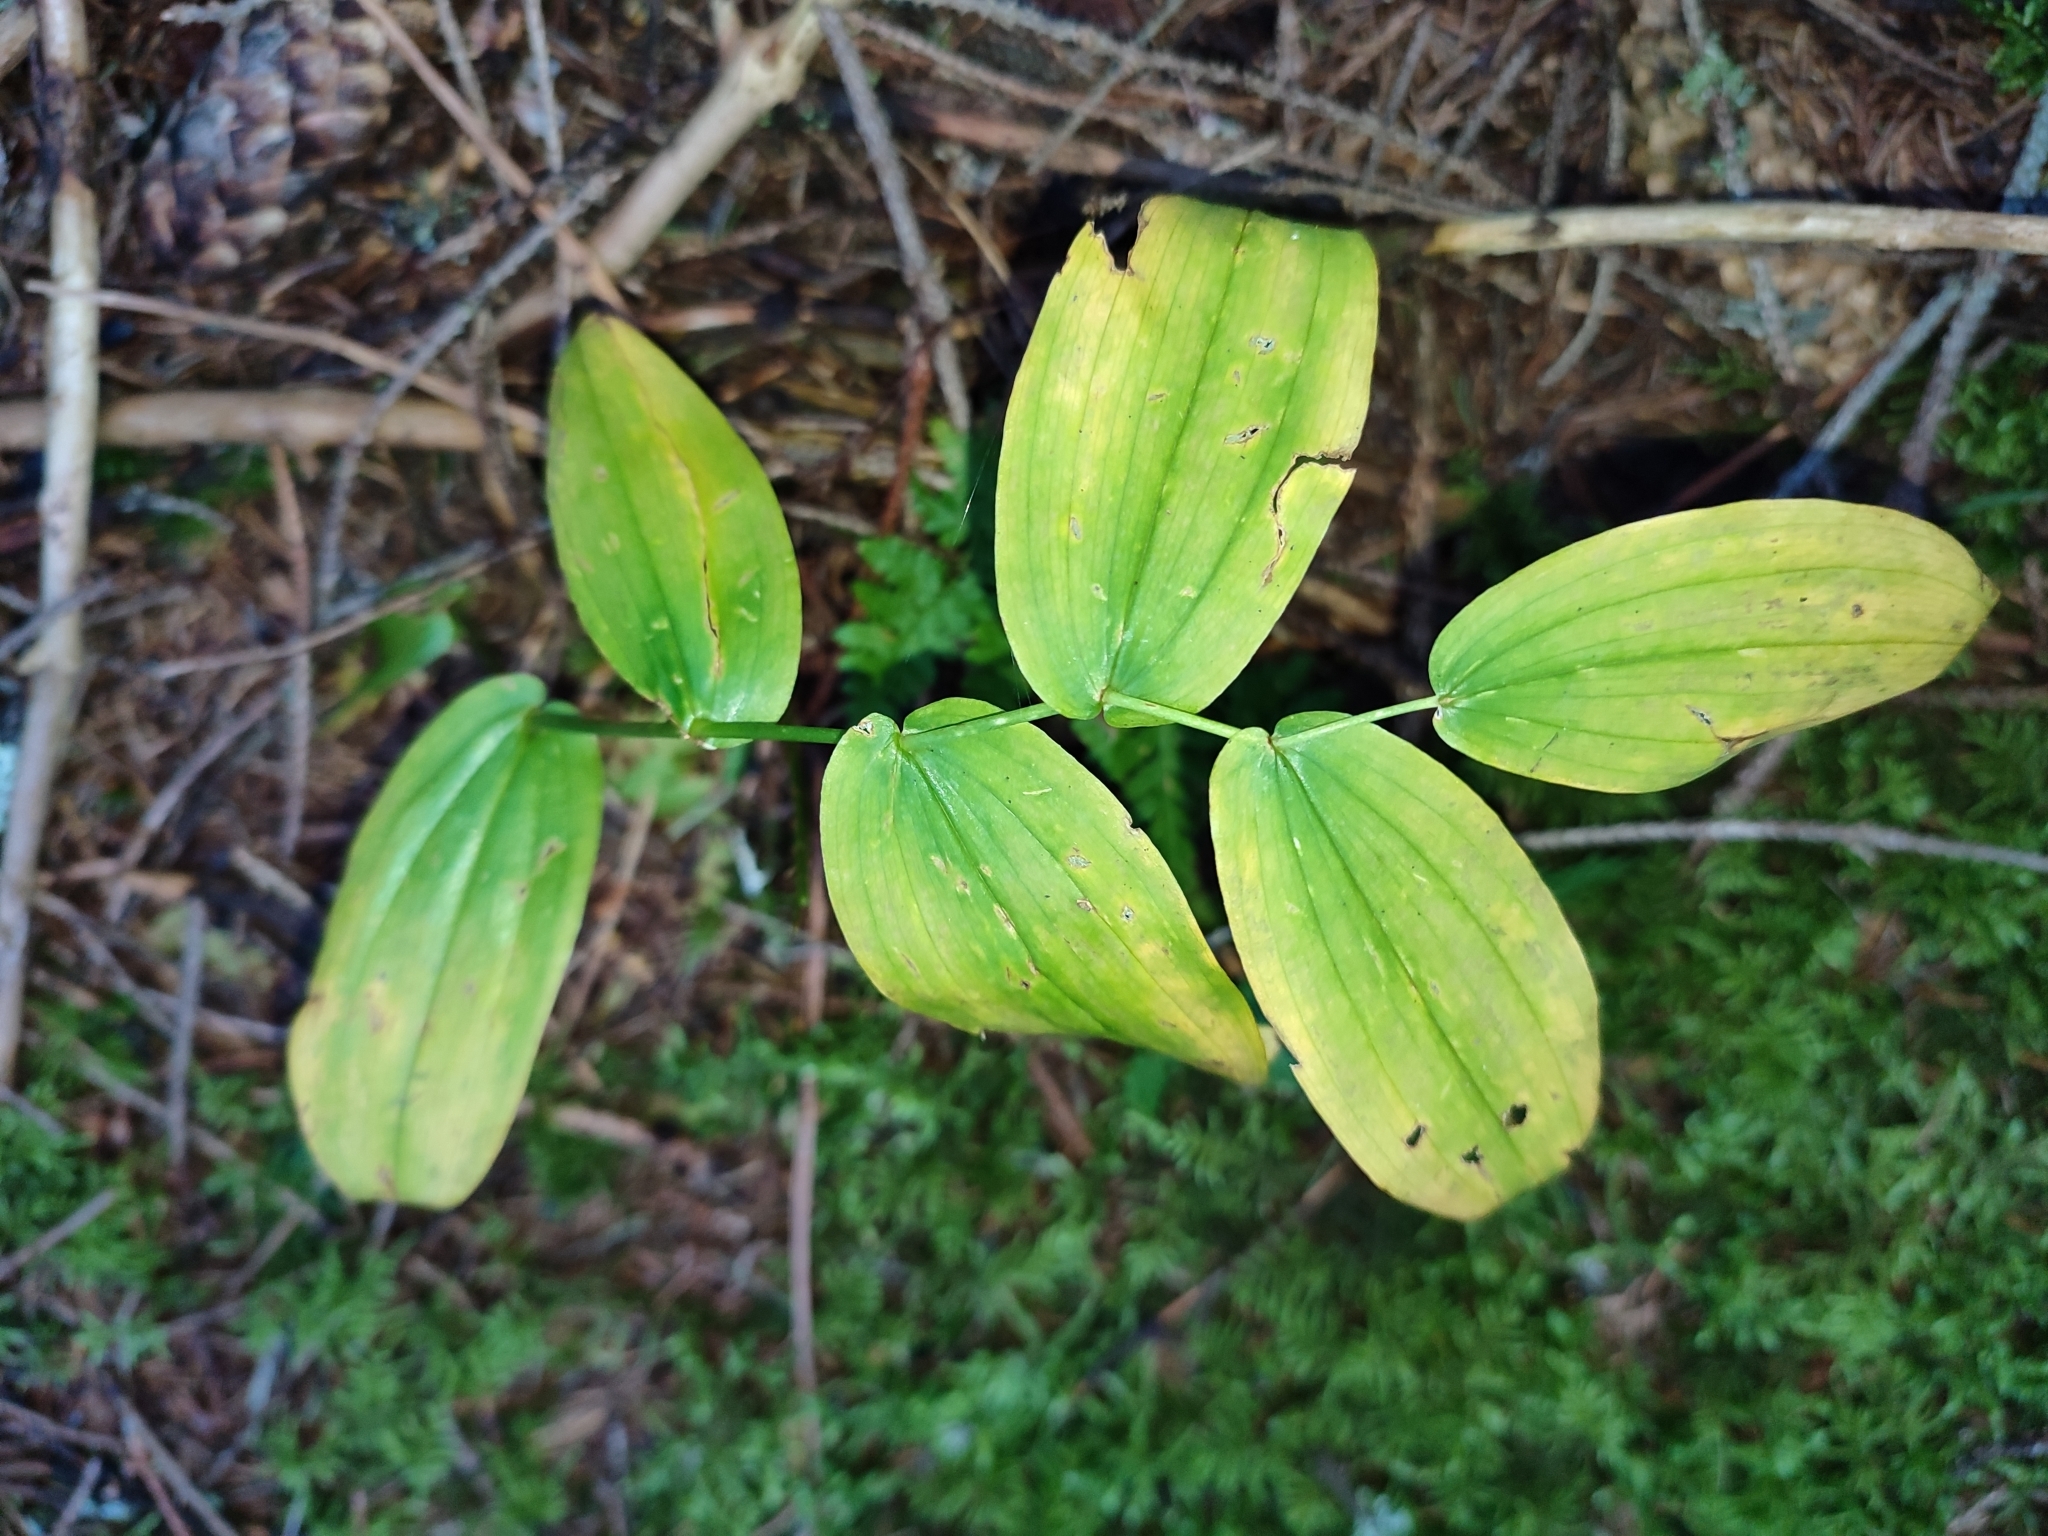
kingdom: Plantae
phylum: Tracheophyta
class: Liliopsida
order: Liliales
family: Liliaceae
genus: Streptopus
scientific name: Streptopus amplexifolius
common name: Clasp twisted stalk
